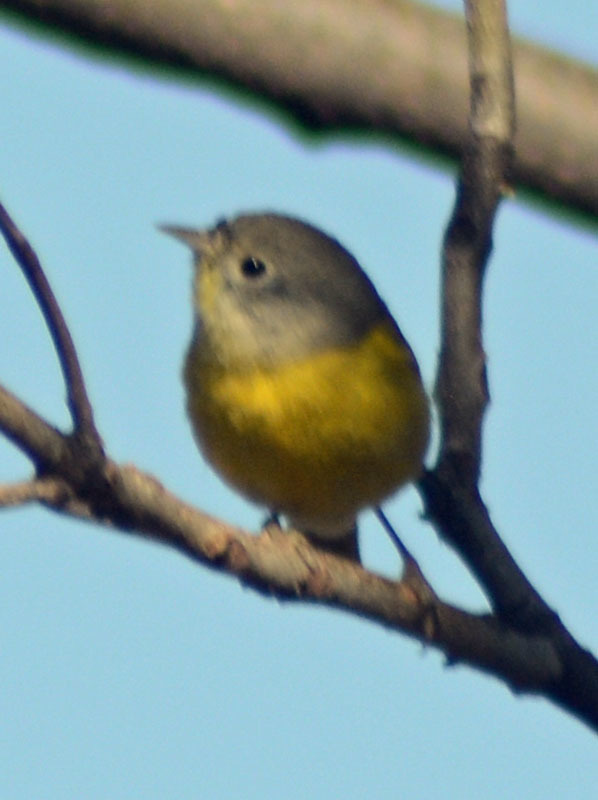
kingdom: Animalia
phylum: Chordata
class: Aves
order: Passeriformes
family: Parulidae
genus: Leiothlypis
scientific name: Leiothlypis ruficapilla
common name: Nashville warbler
